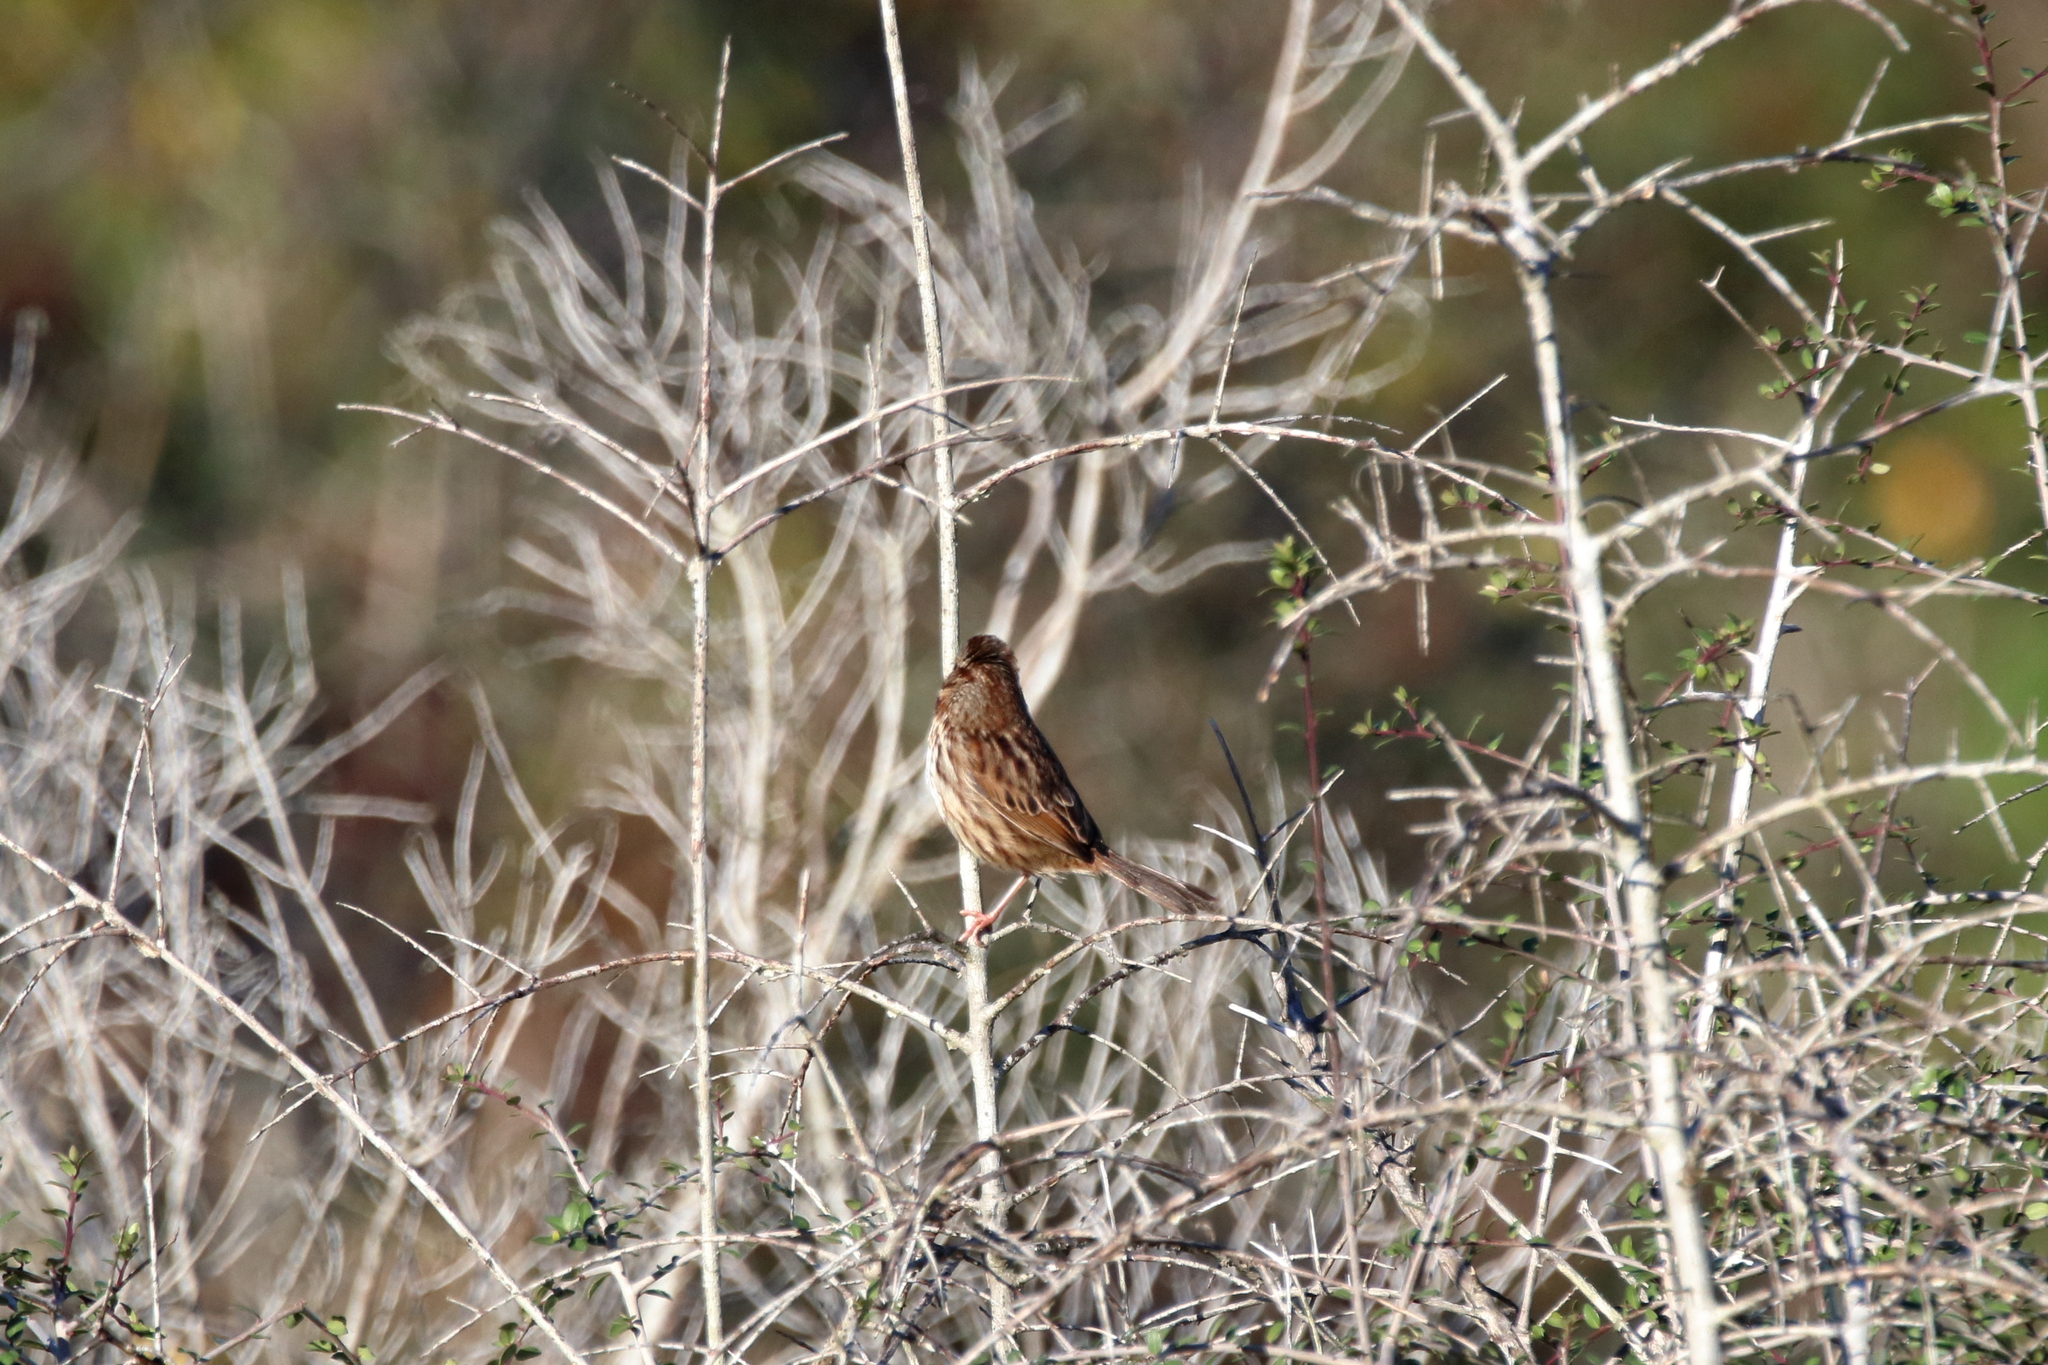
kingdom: Animalia
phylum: Chordata
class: Aves
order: Passeriformes
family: Passerellidae
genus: Melospiza
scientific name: Melospiza melodia
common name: Song sparrow
